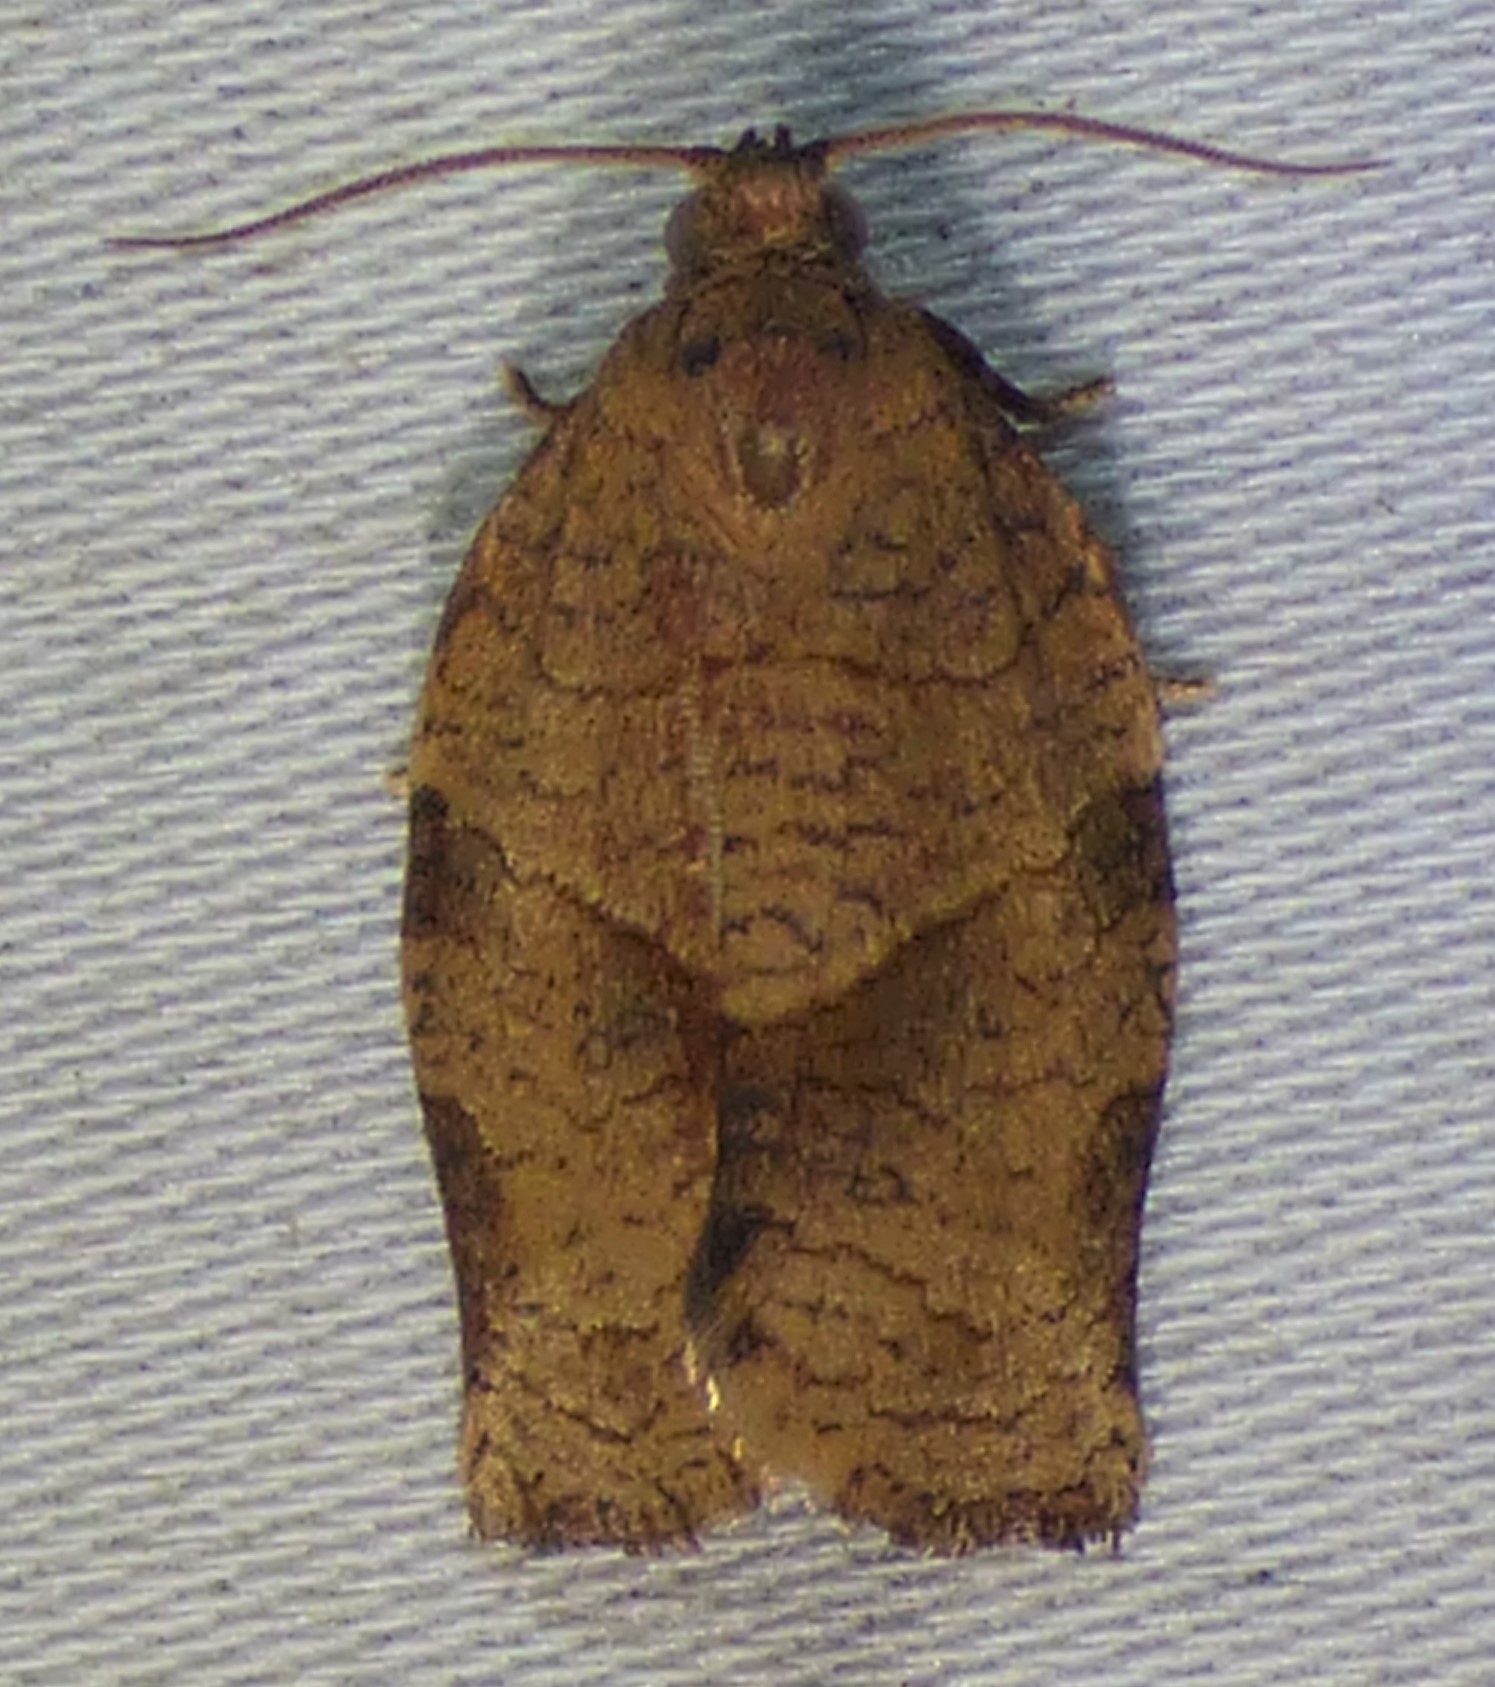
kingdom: Animalia
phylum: Arthropoda
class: Insecta
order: Lepidoptera
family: Tortricidae
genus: Choristoneura
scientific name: Choristoneura rosaceana
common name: Oblique-banded leafroller moth
